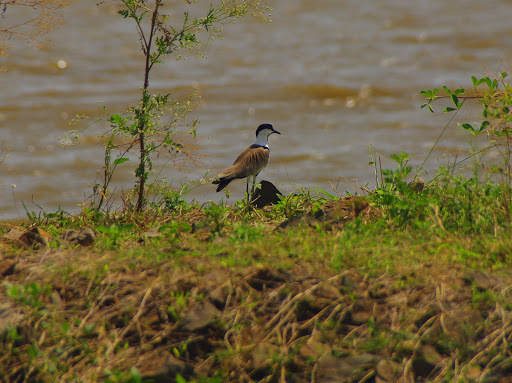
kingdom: Animalia
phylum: Chordata
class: Aves
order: Charadriiformes
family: Charadriidae
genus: Vanellus
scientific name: Vanellus spinosus
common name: Spur-winged lapwing
